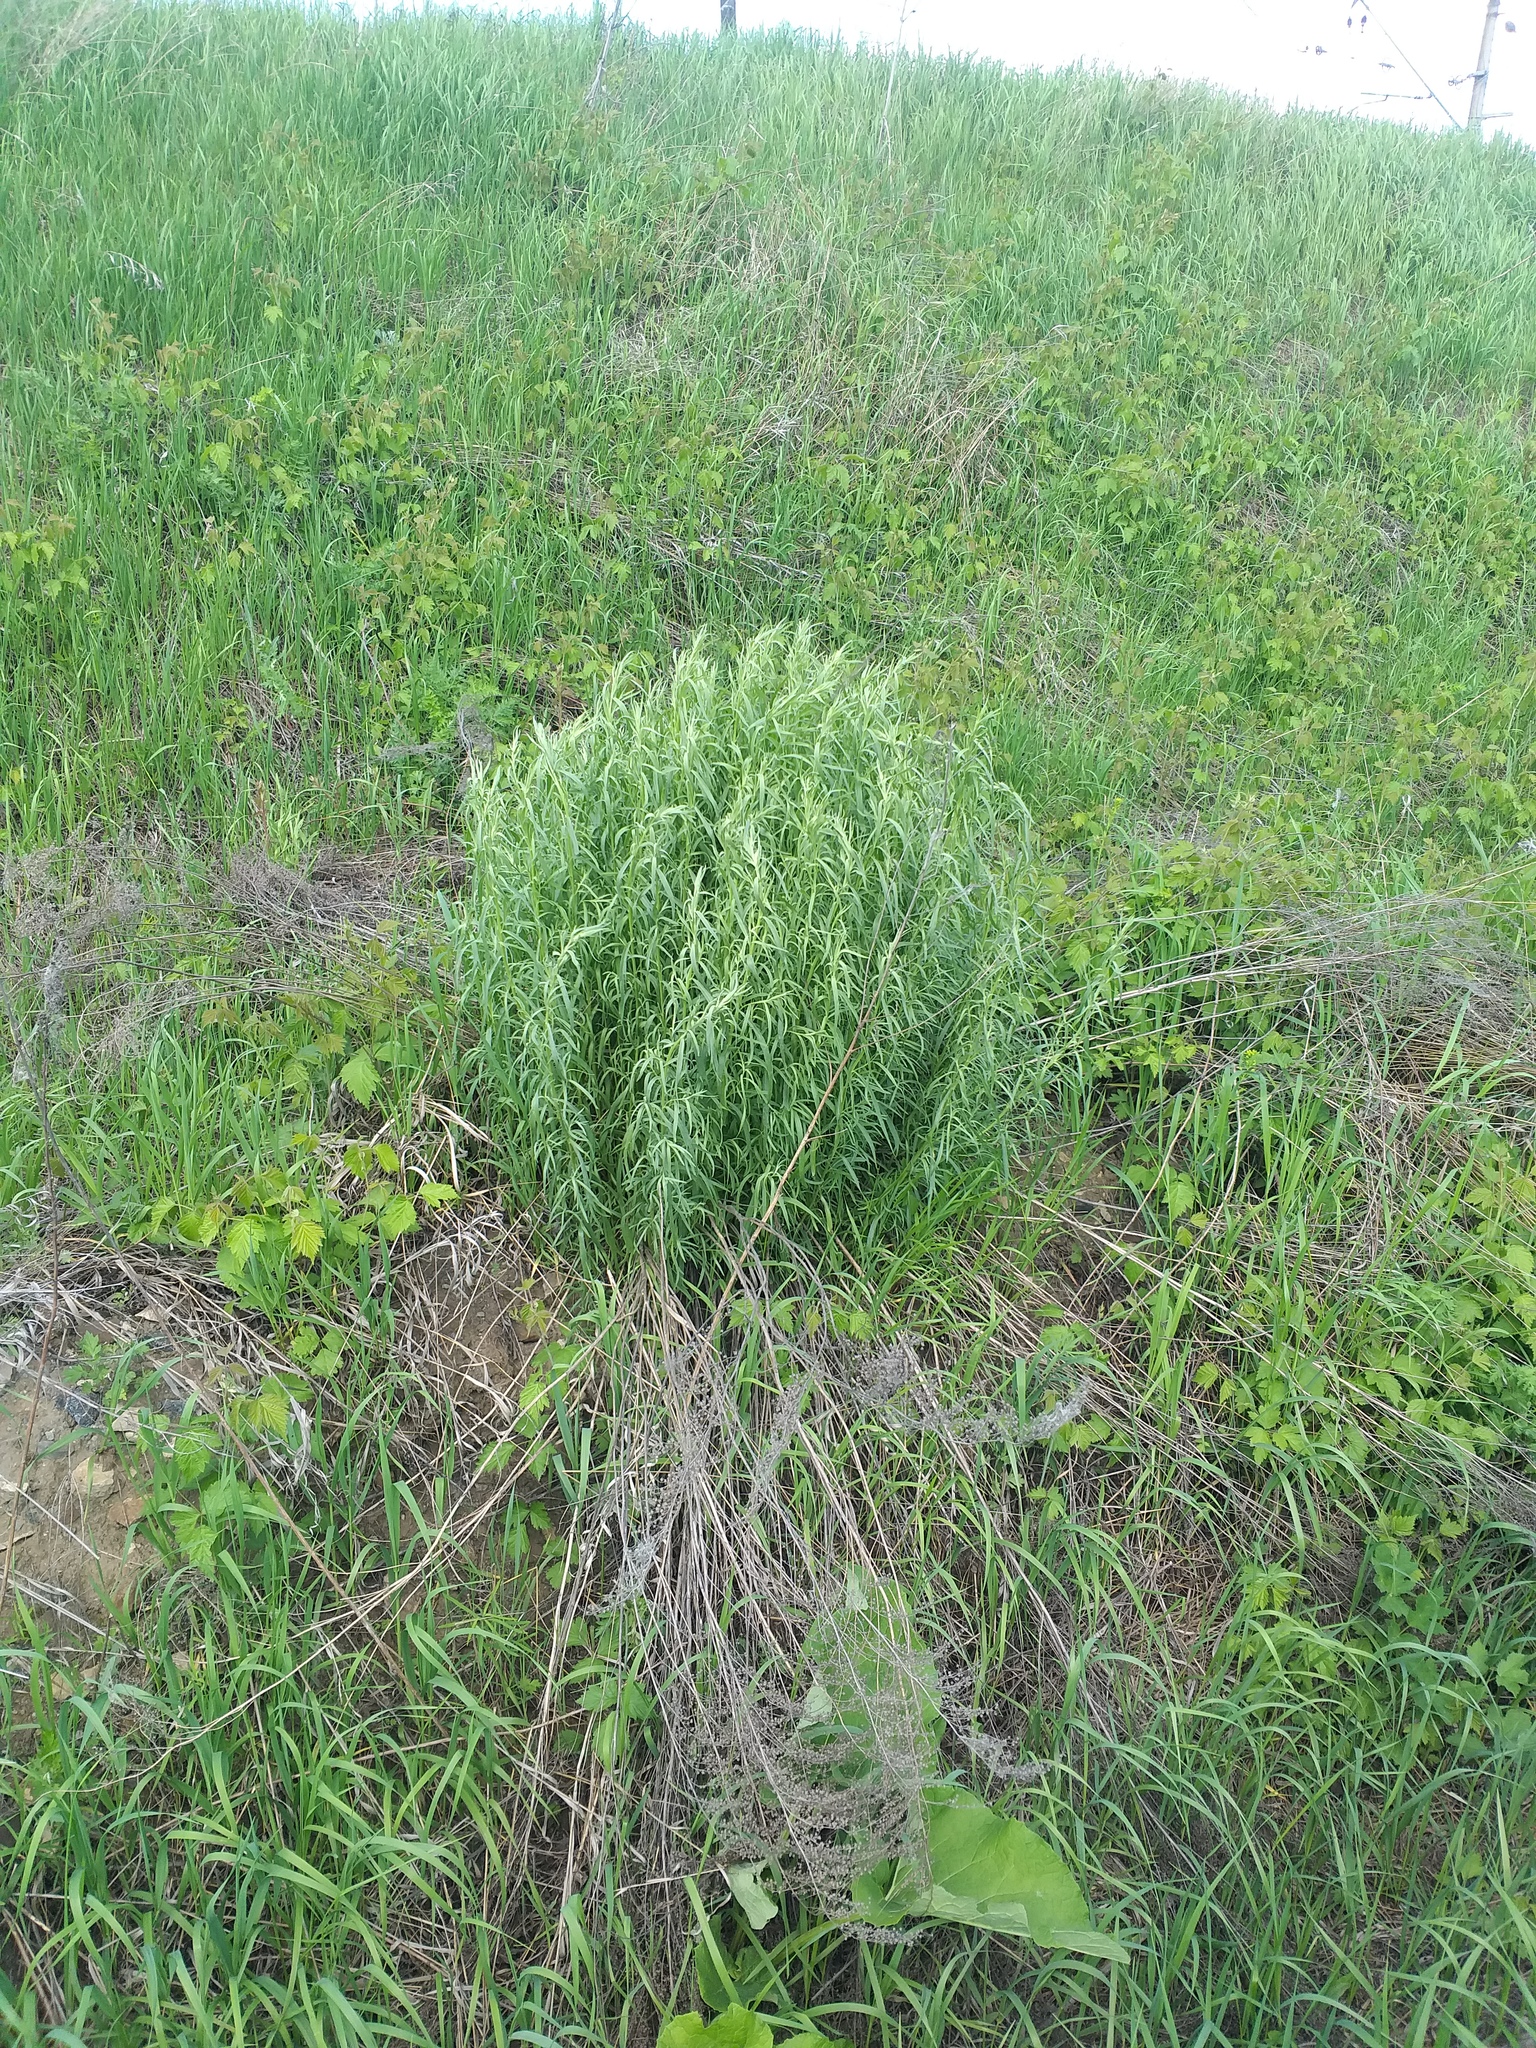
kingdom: Plantae
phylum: Tracheophyta
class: Magnoliopsida
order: Asterales
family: Asteraceae
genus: Artemisia
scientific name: Artemisia dracunculus
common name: Tarragon
